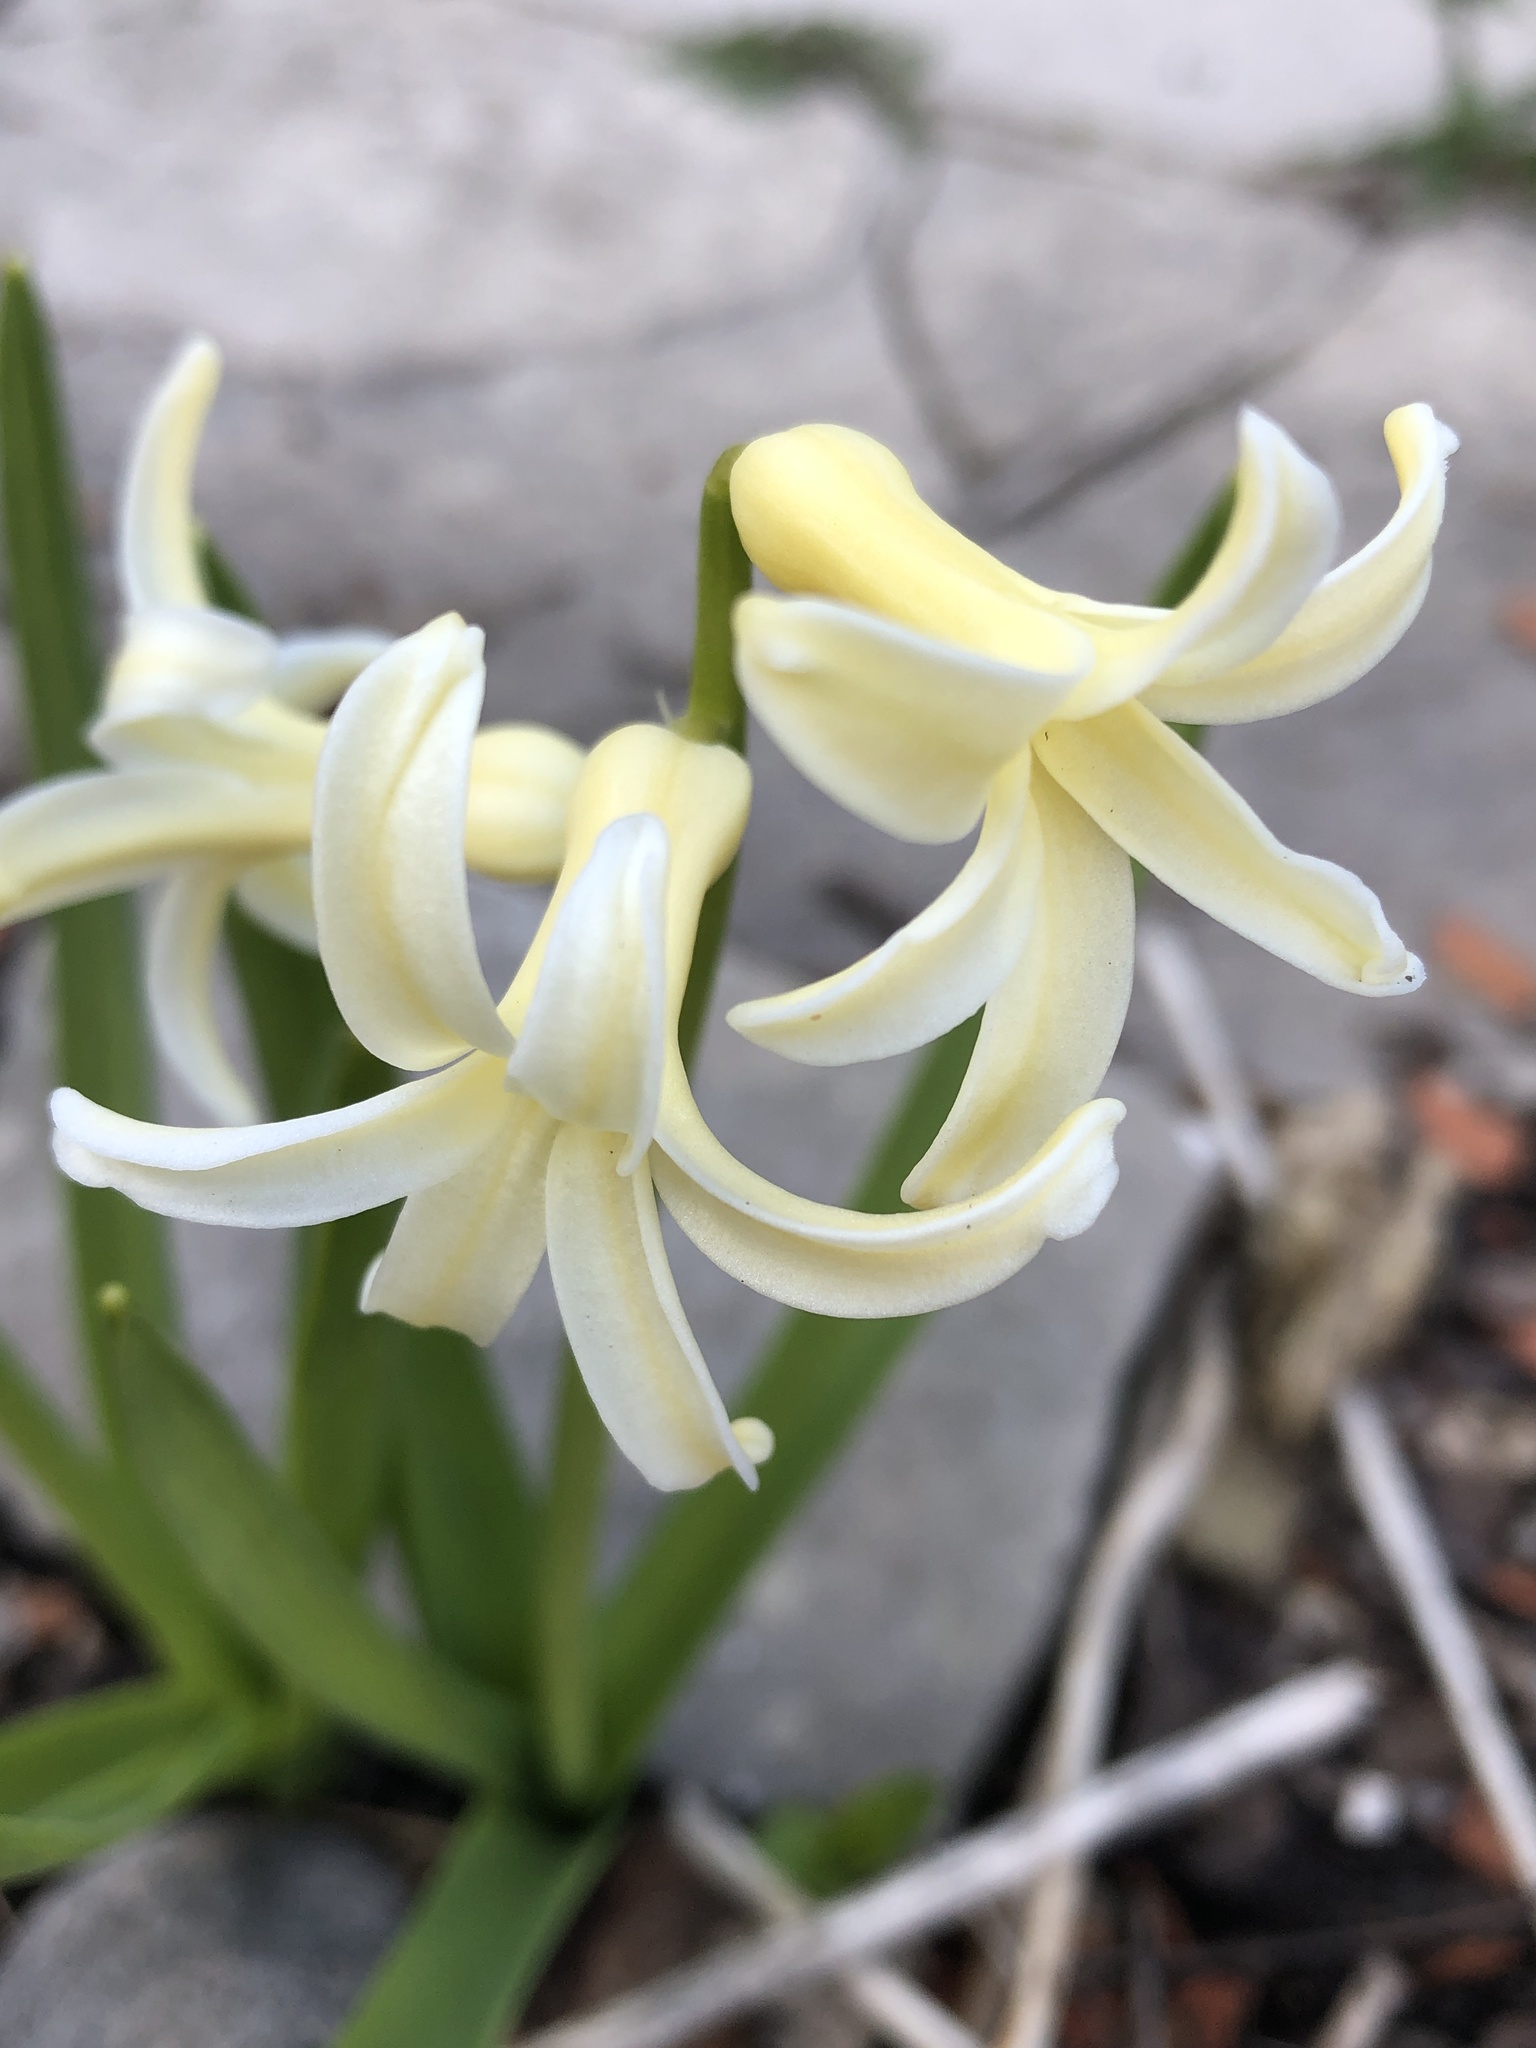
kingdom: Plantae
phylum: Tracheophyta
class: Liliopsida
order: Asparagales
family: Asparagaceae
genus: Hyacinthus
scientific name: Hyacinthus orientalis
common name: Hyacinth
